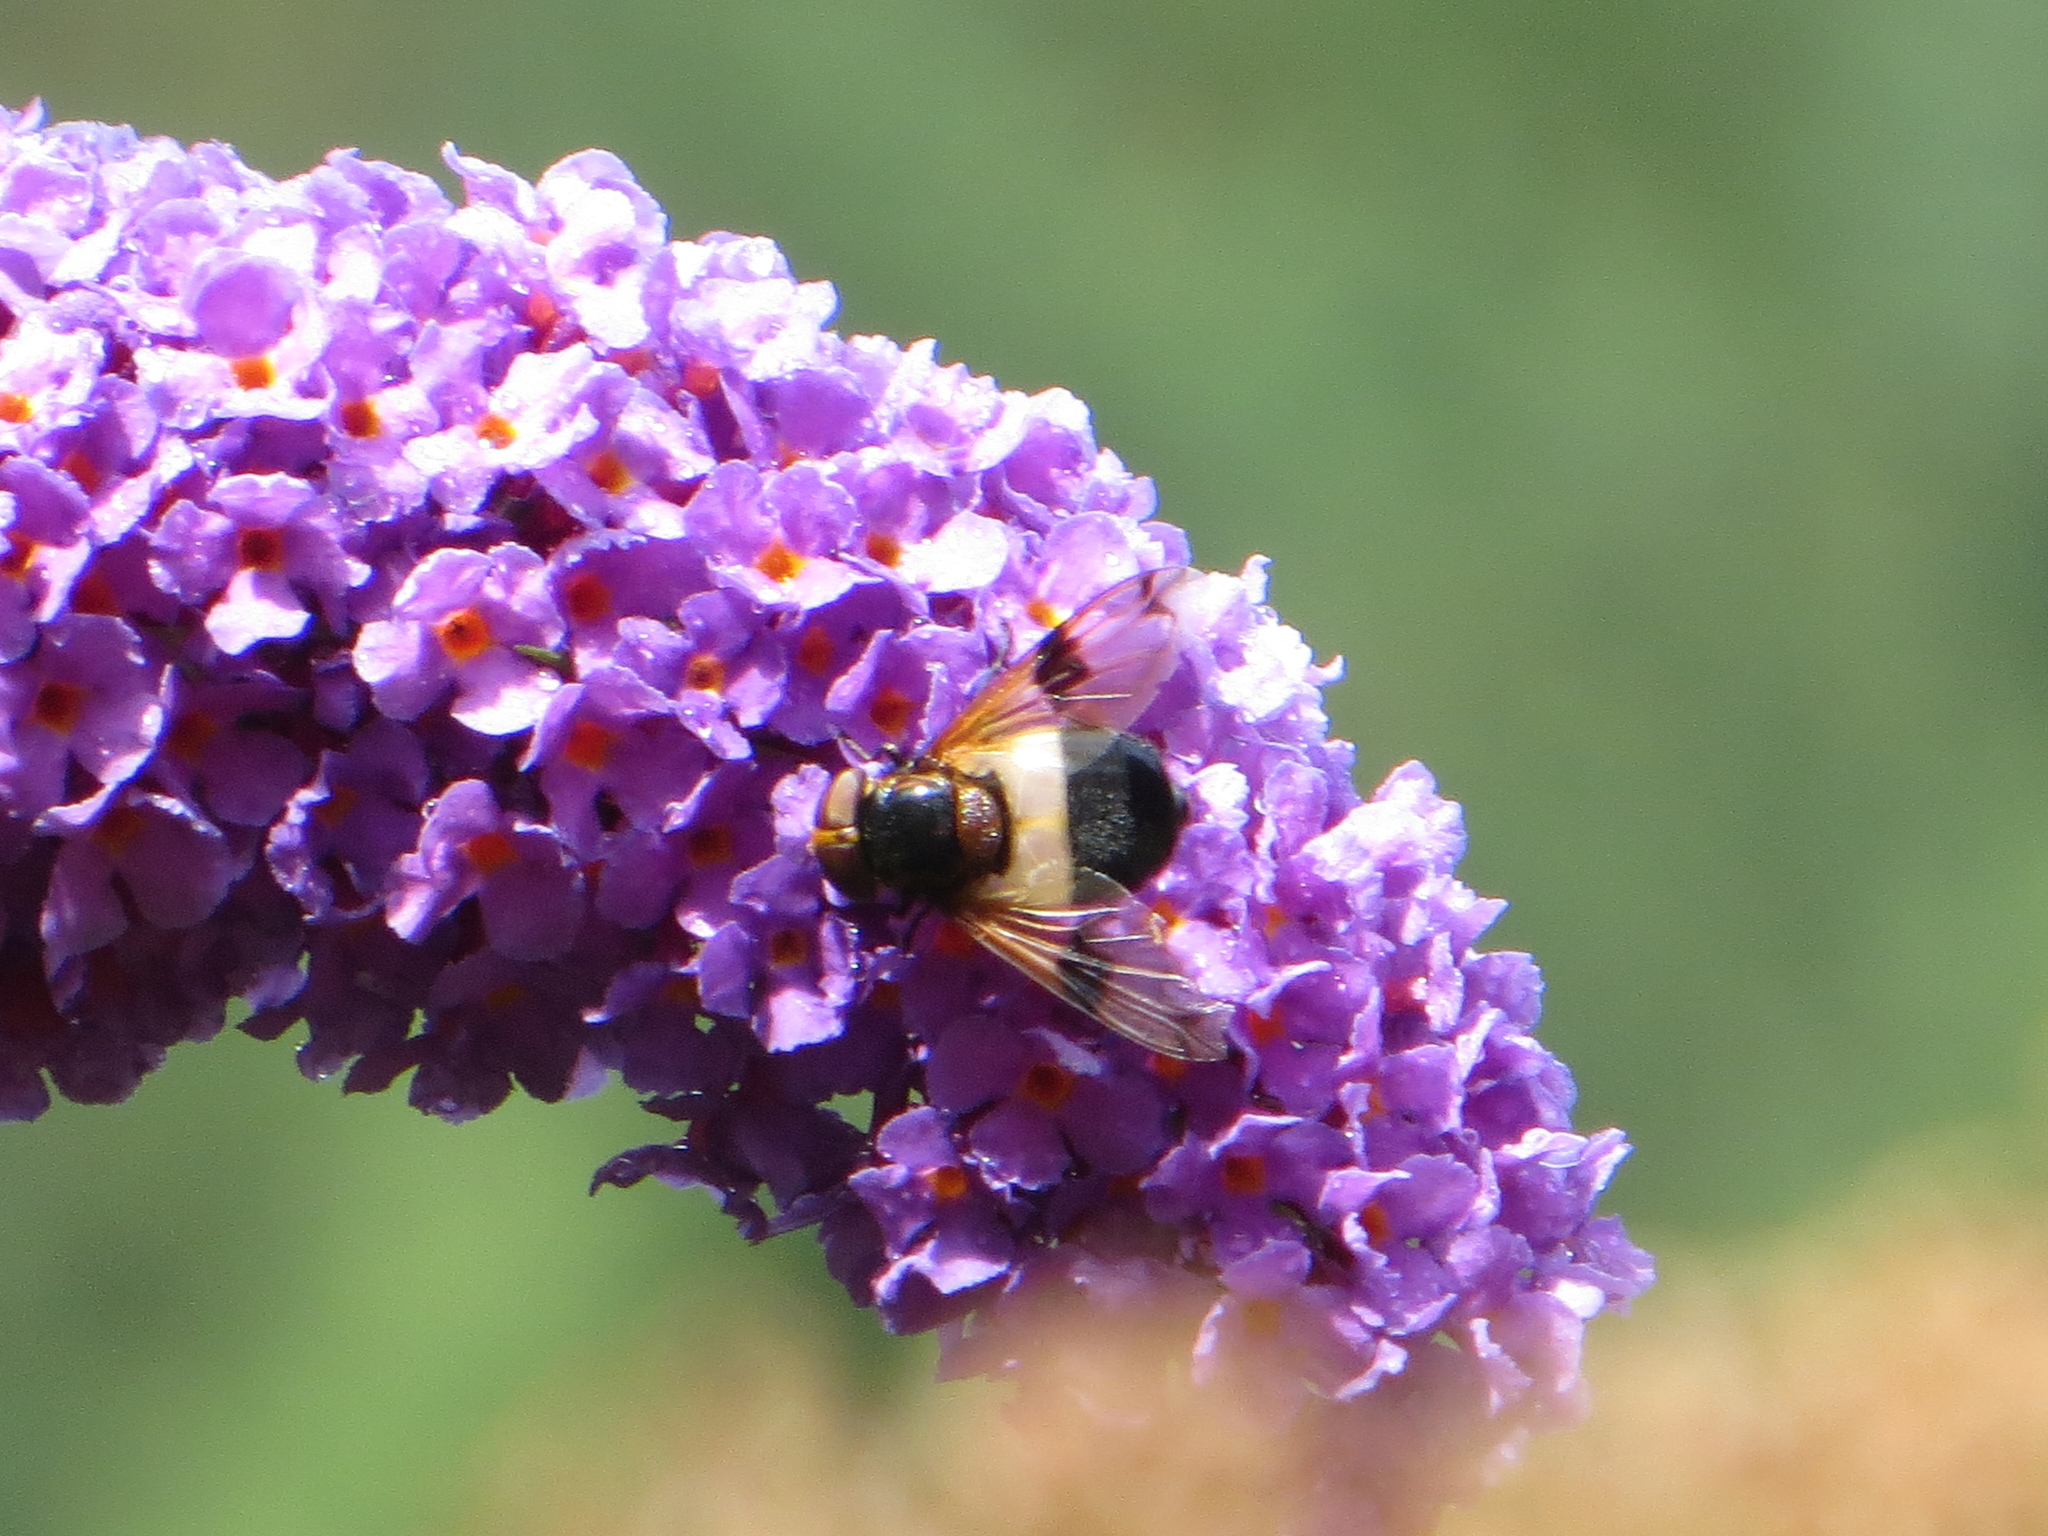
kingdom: Animalia
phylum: Arthropoda
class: Insecta
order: Diptera
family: Syrphidae
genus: Volucella
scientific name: Volucella pellucens
